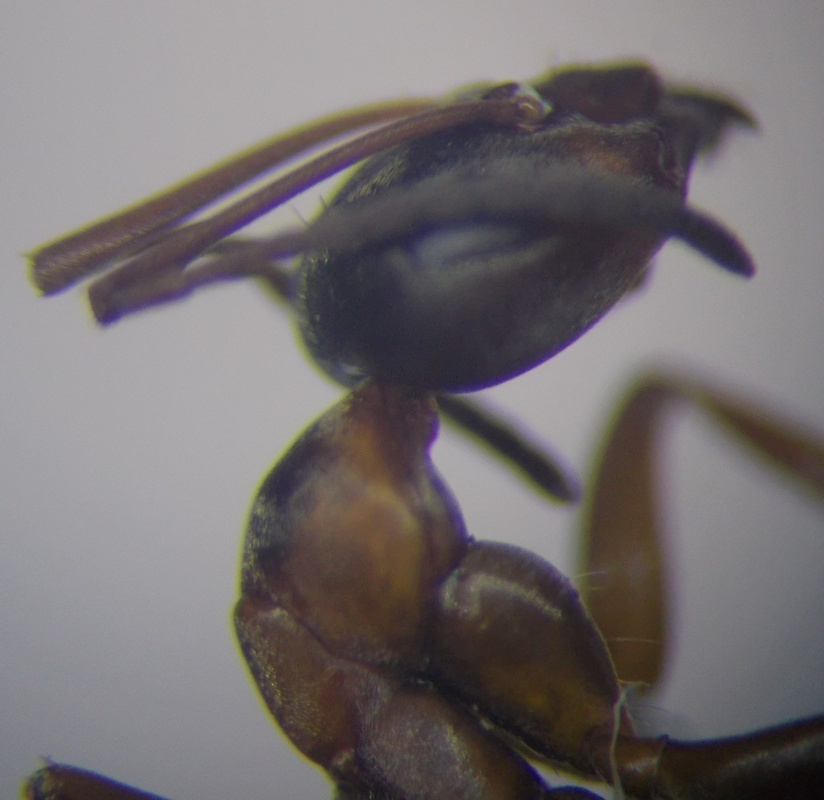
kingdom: Animalia
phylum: Arthropoda
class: Insecta
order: Hymenoptera
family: Formicidae
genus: Formica
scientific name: Formica cunicularia
